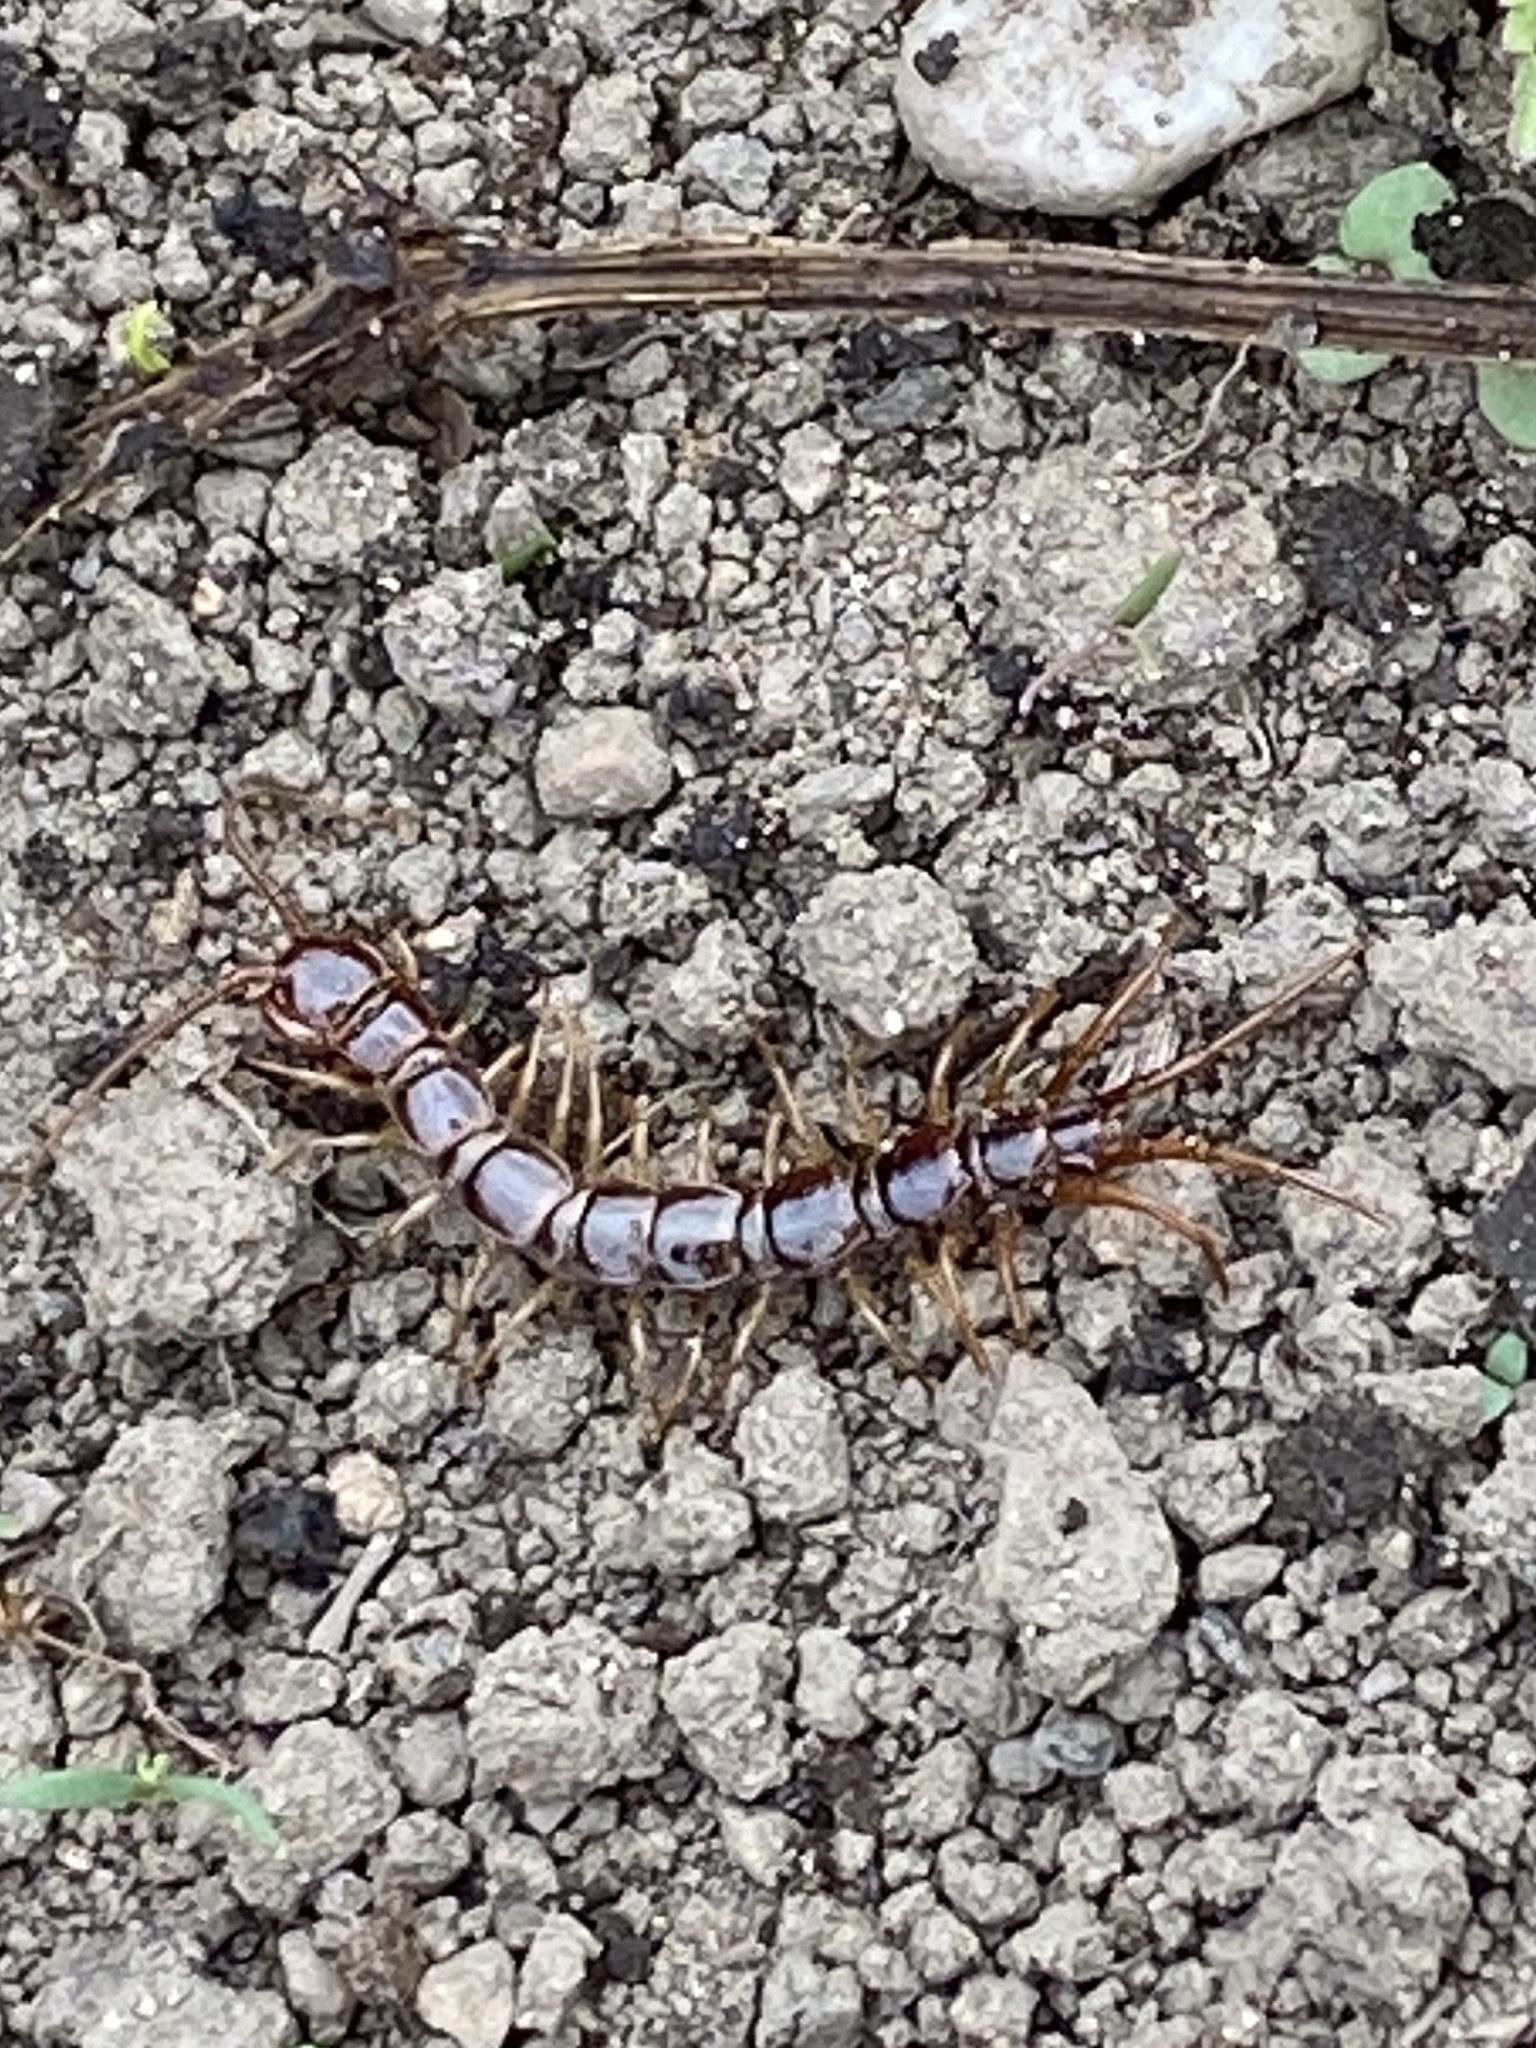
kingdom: Animalia
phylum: Arthropoda
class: Chilopoda
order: Lithobiomorpha
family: Lithobiidae
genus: Lithobius
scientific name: Lithobius forficatus
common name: Centipede
